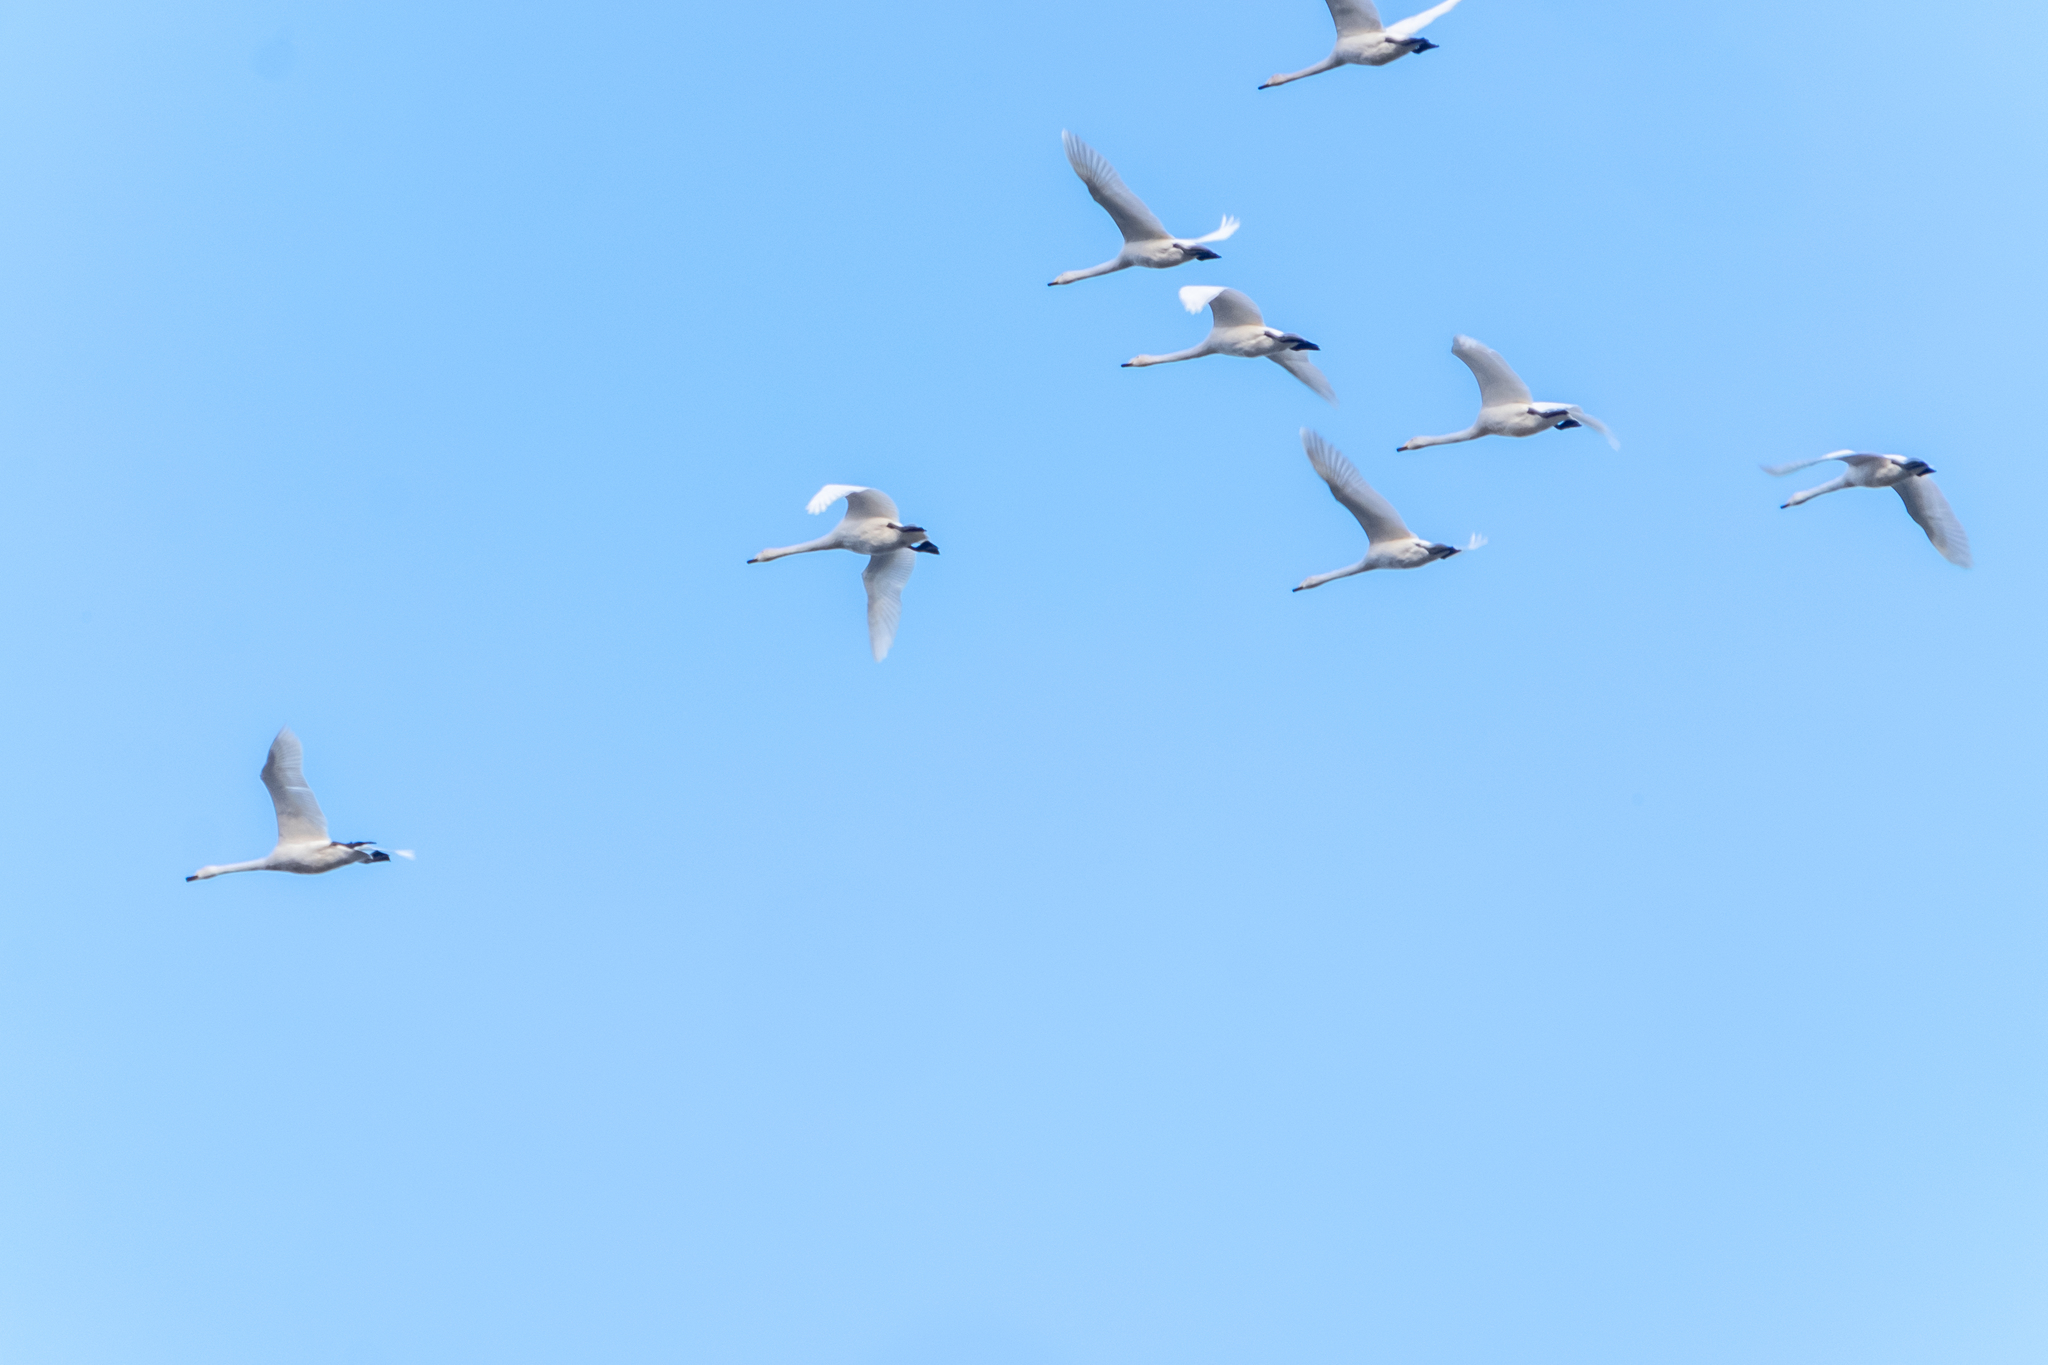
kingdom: Animalia
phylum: Chordata
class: Aves
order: Anseriformes
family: Anatidae
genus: Cygnus
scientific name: Cygnus cygnus
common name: Whooper swan
